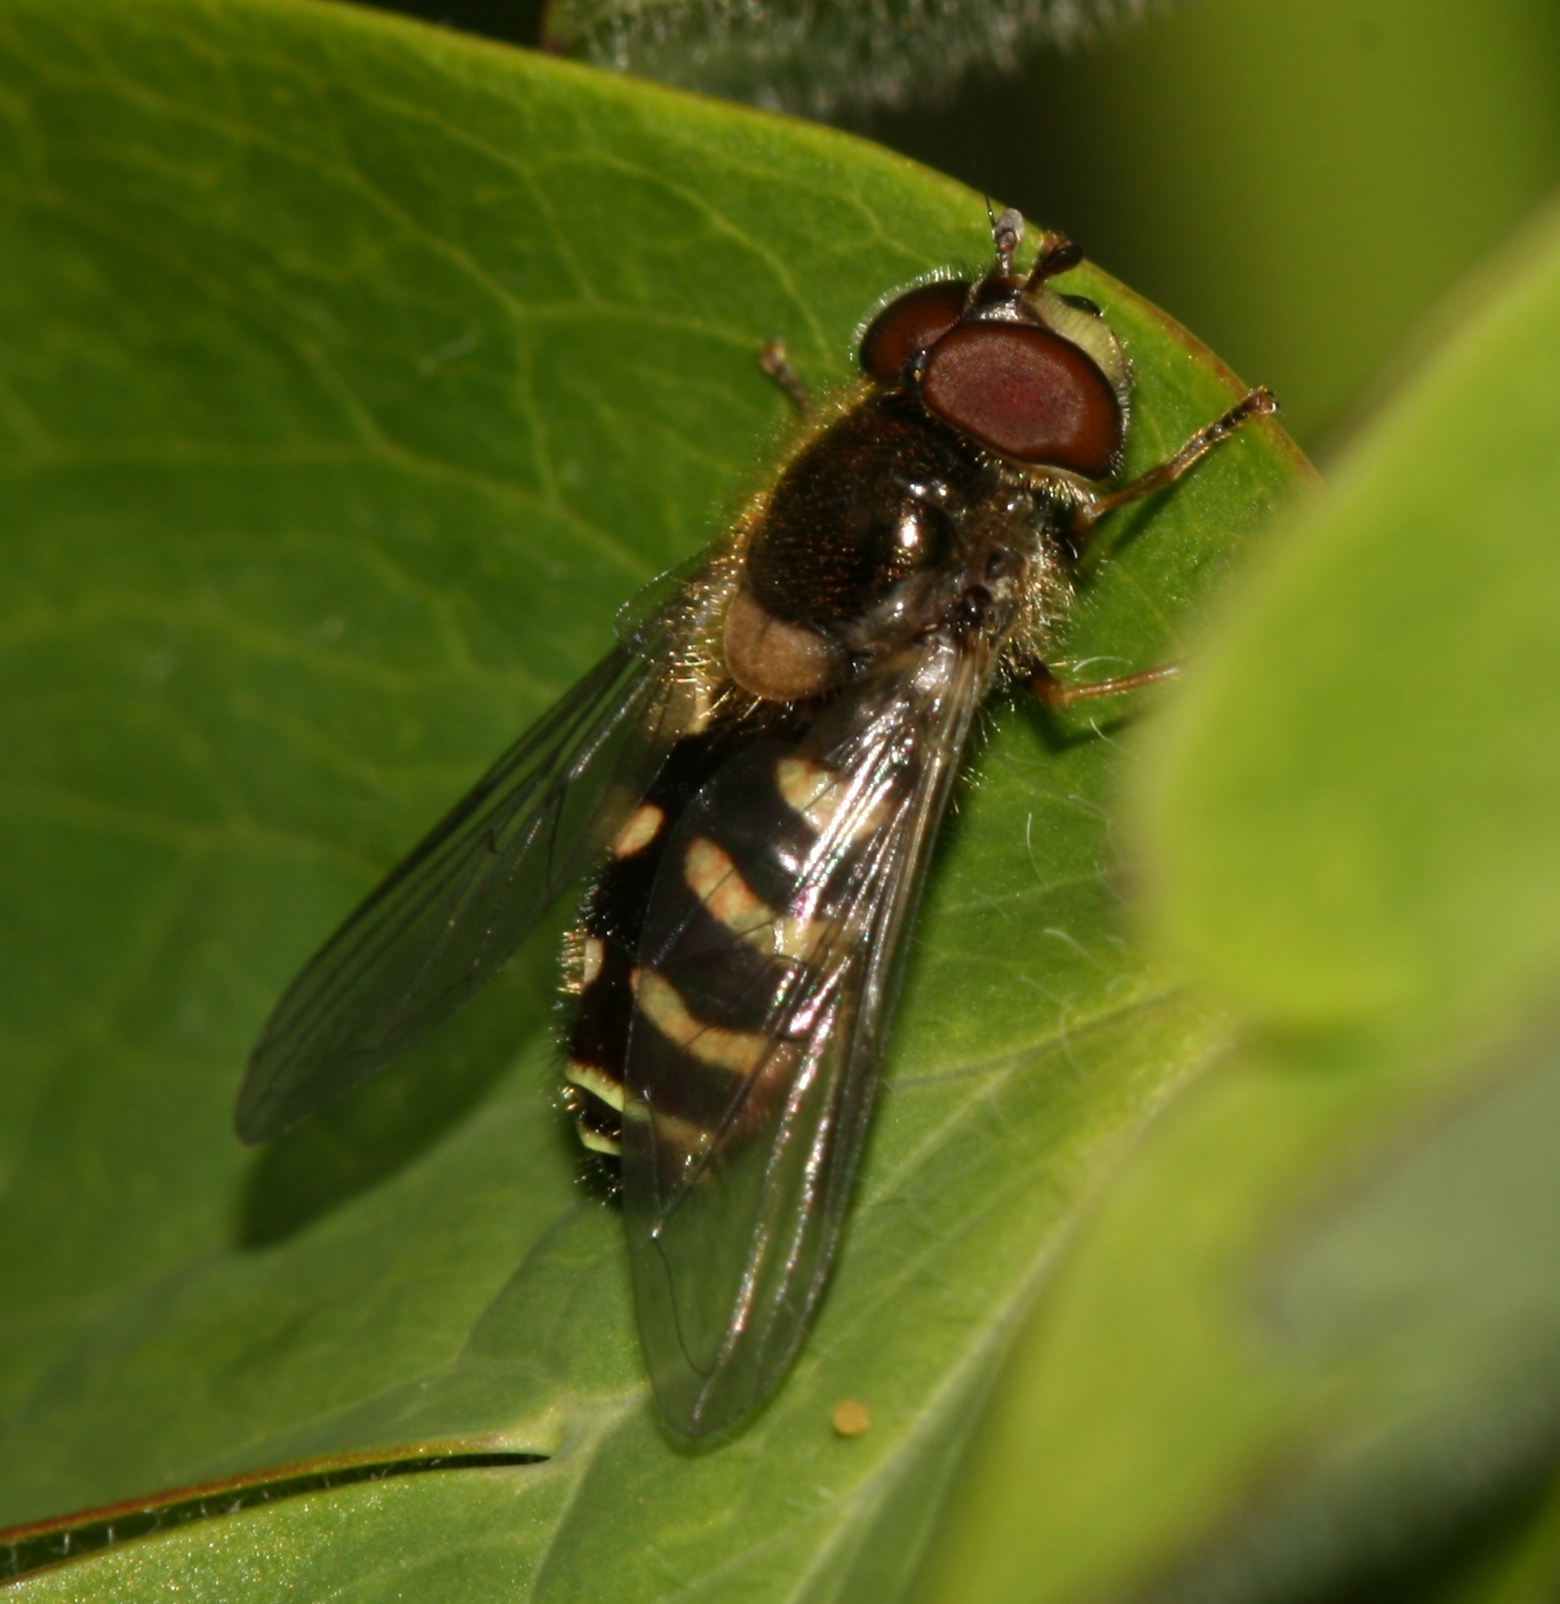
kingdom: Animalia
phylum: Arthropoda
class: Insecta
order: Diptera
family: Syrphidae
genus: Dasysyrphus
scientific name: Dasysyrphus
